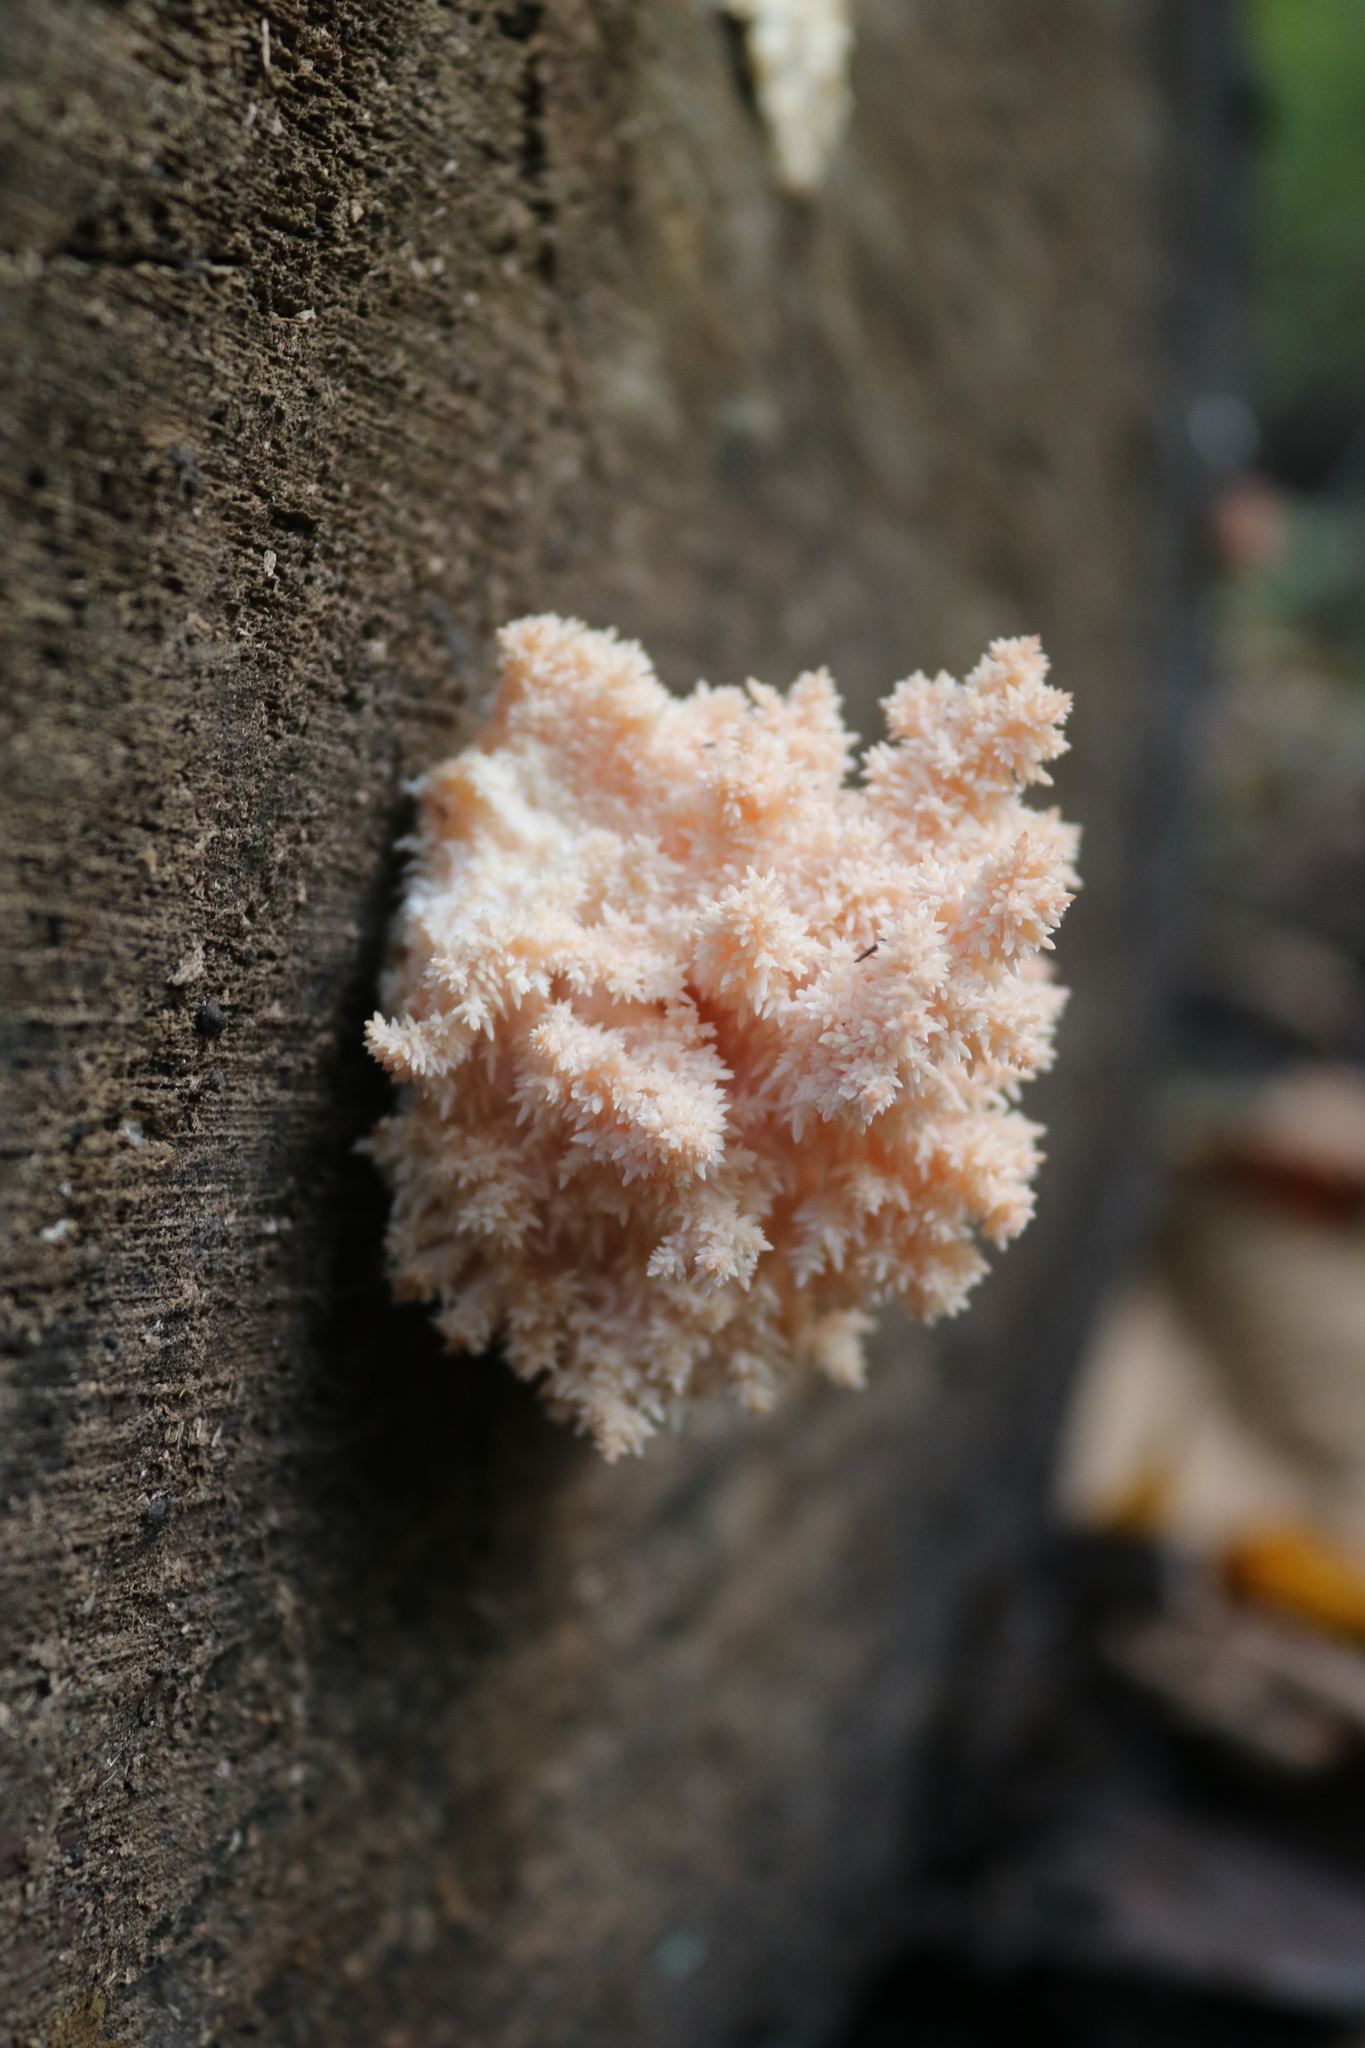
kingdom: Fungi
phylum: Basidiomycota
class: Agaricomycetes
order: Russulales
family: Hericiaceae
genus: Hericium
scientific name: Hericium coralloides
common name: Coral tooth
